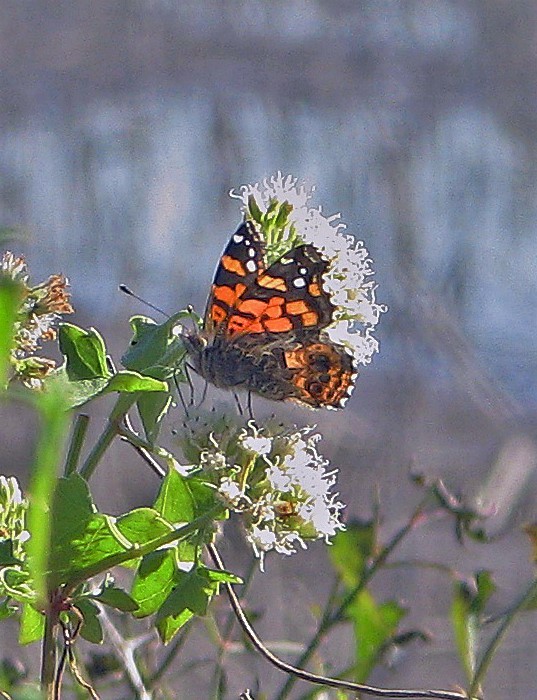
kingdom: Animalia
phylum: Arthropoda
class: Insecta
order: Lepidoptera
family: Nymphalidae
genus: Vanessa
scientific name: Vanessa carye
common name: Subtropical lady
